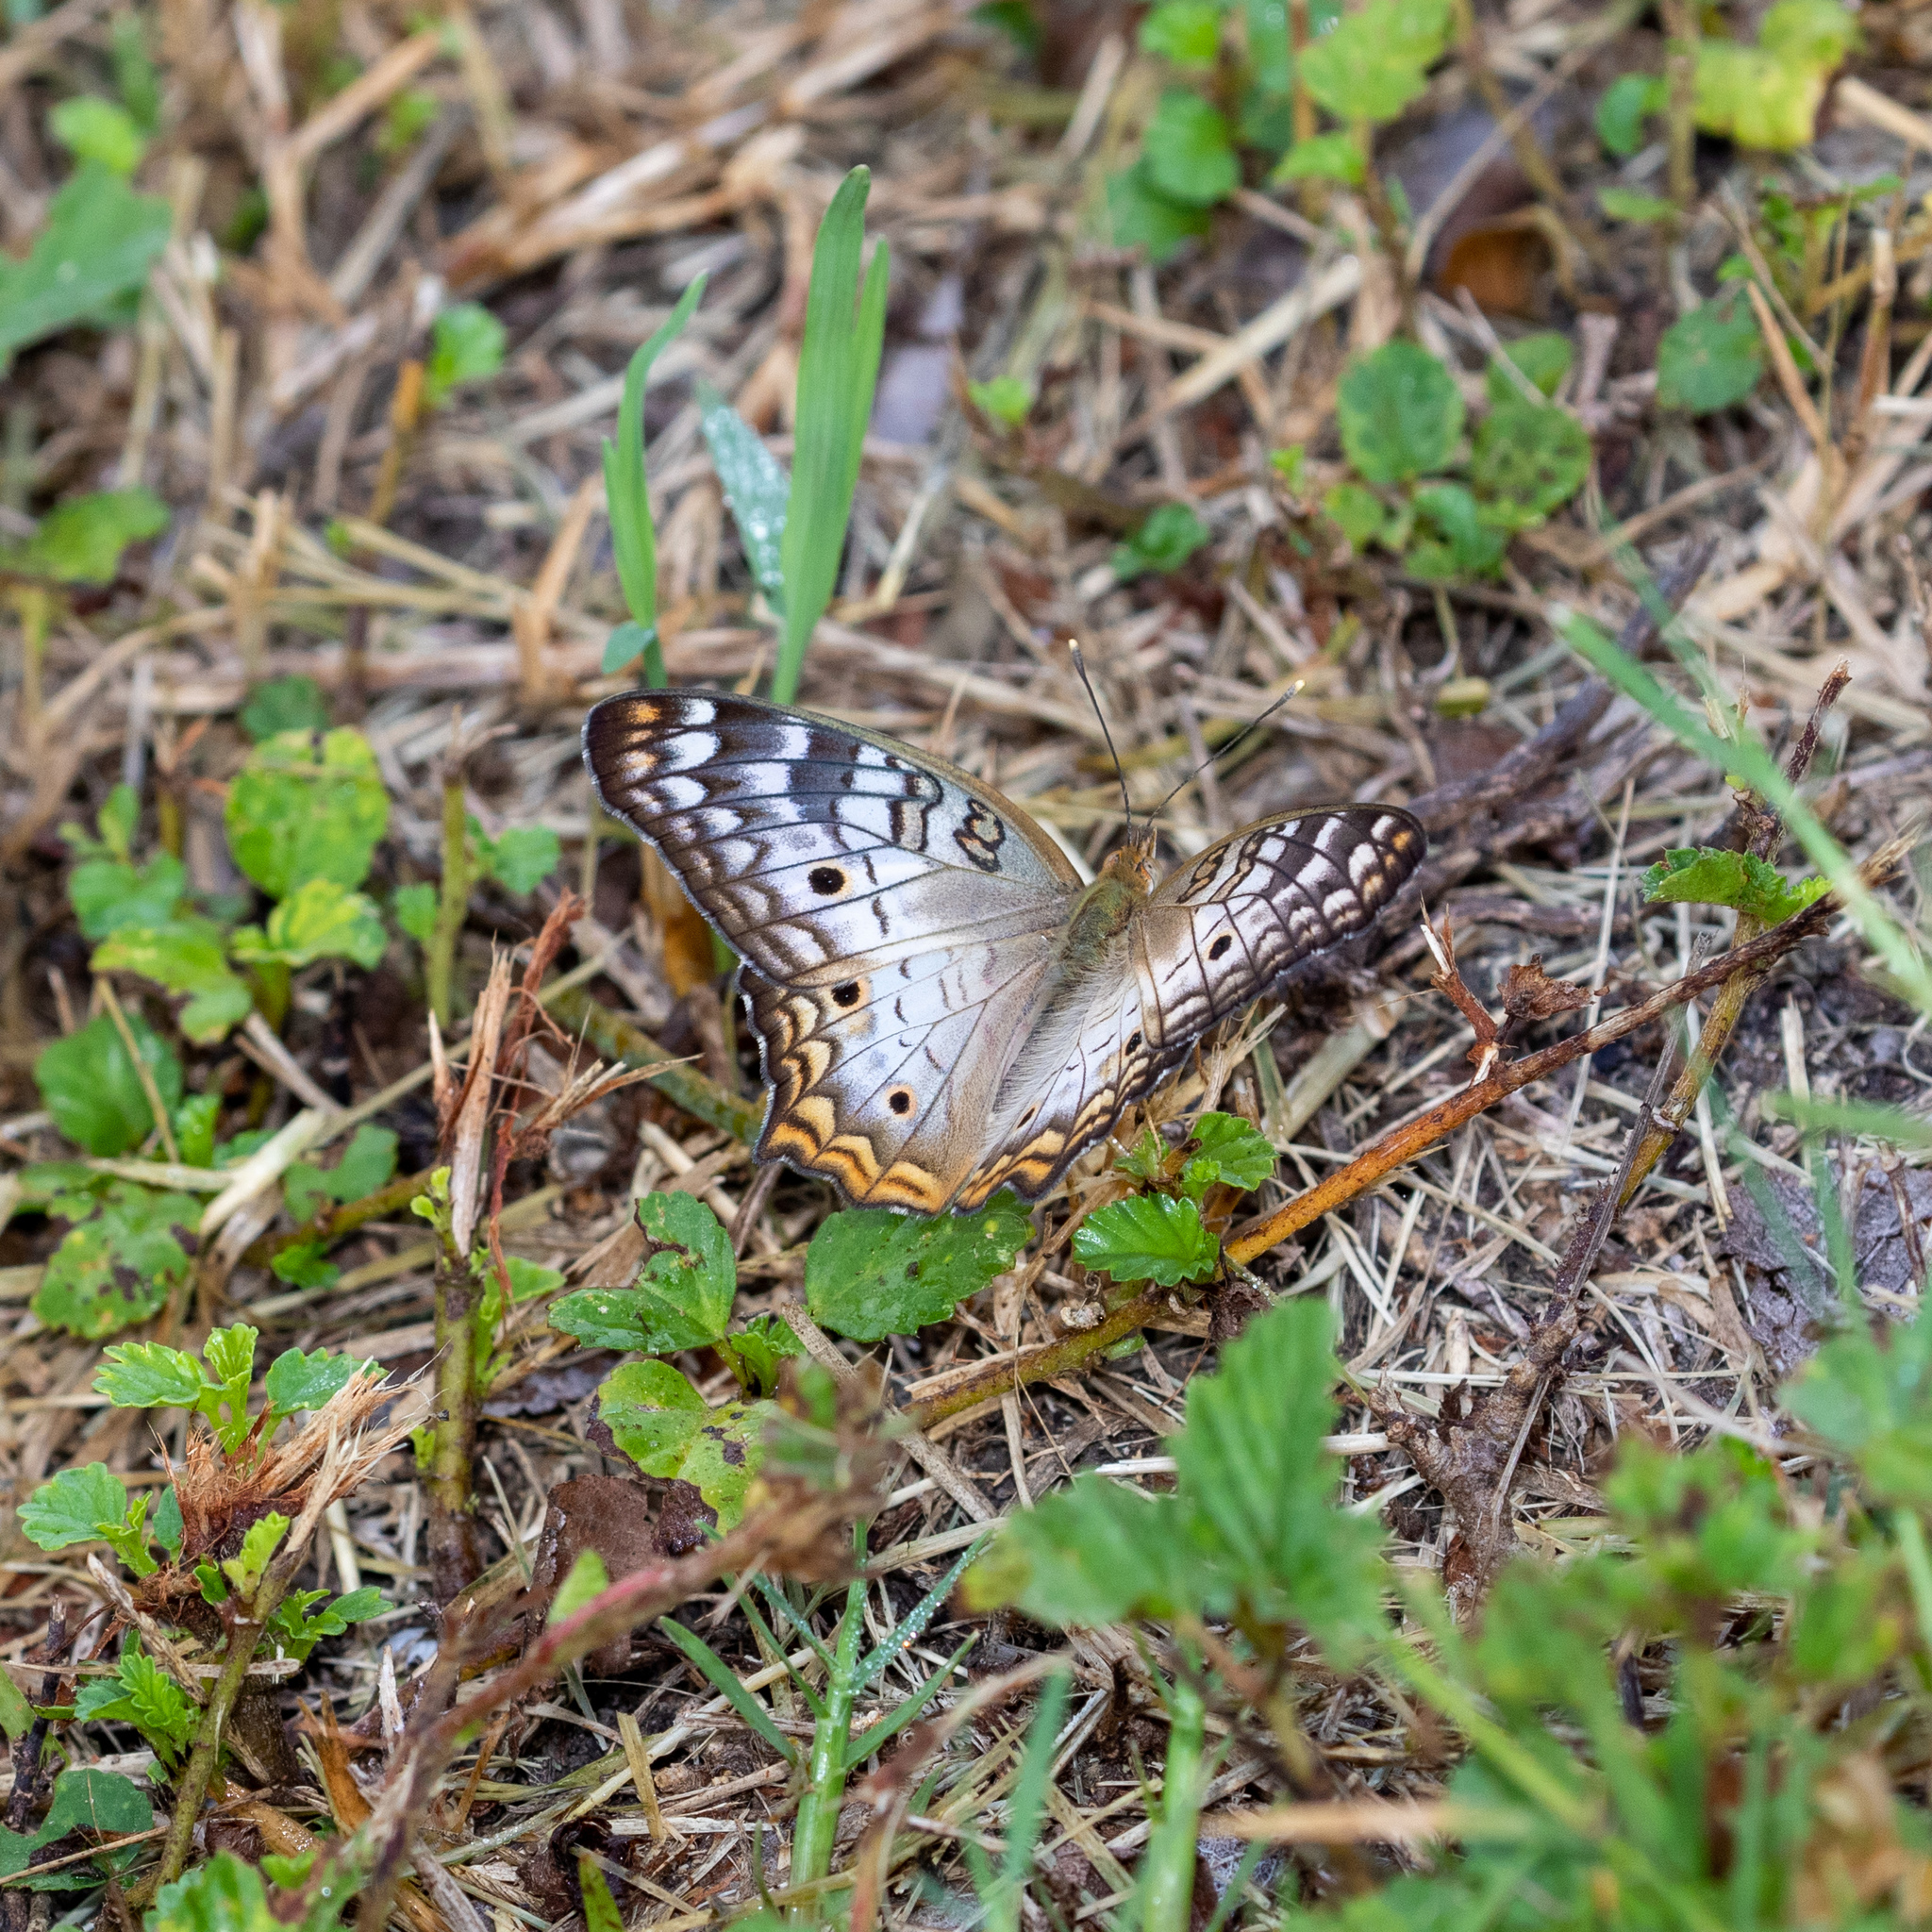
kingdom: Animalia
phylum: Arthropoda
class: Insecta
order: Lepidoptera
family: Nymphalidae
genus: Anartia
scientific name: Anartia jatrophae
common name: White peacock
